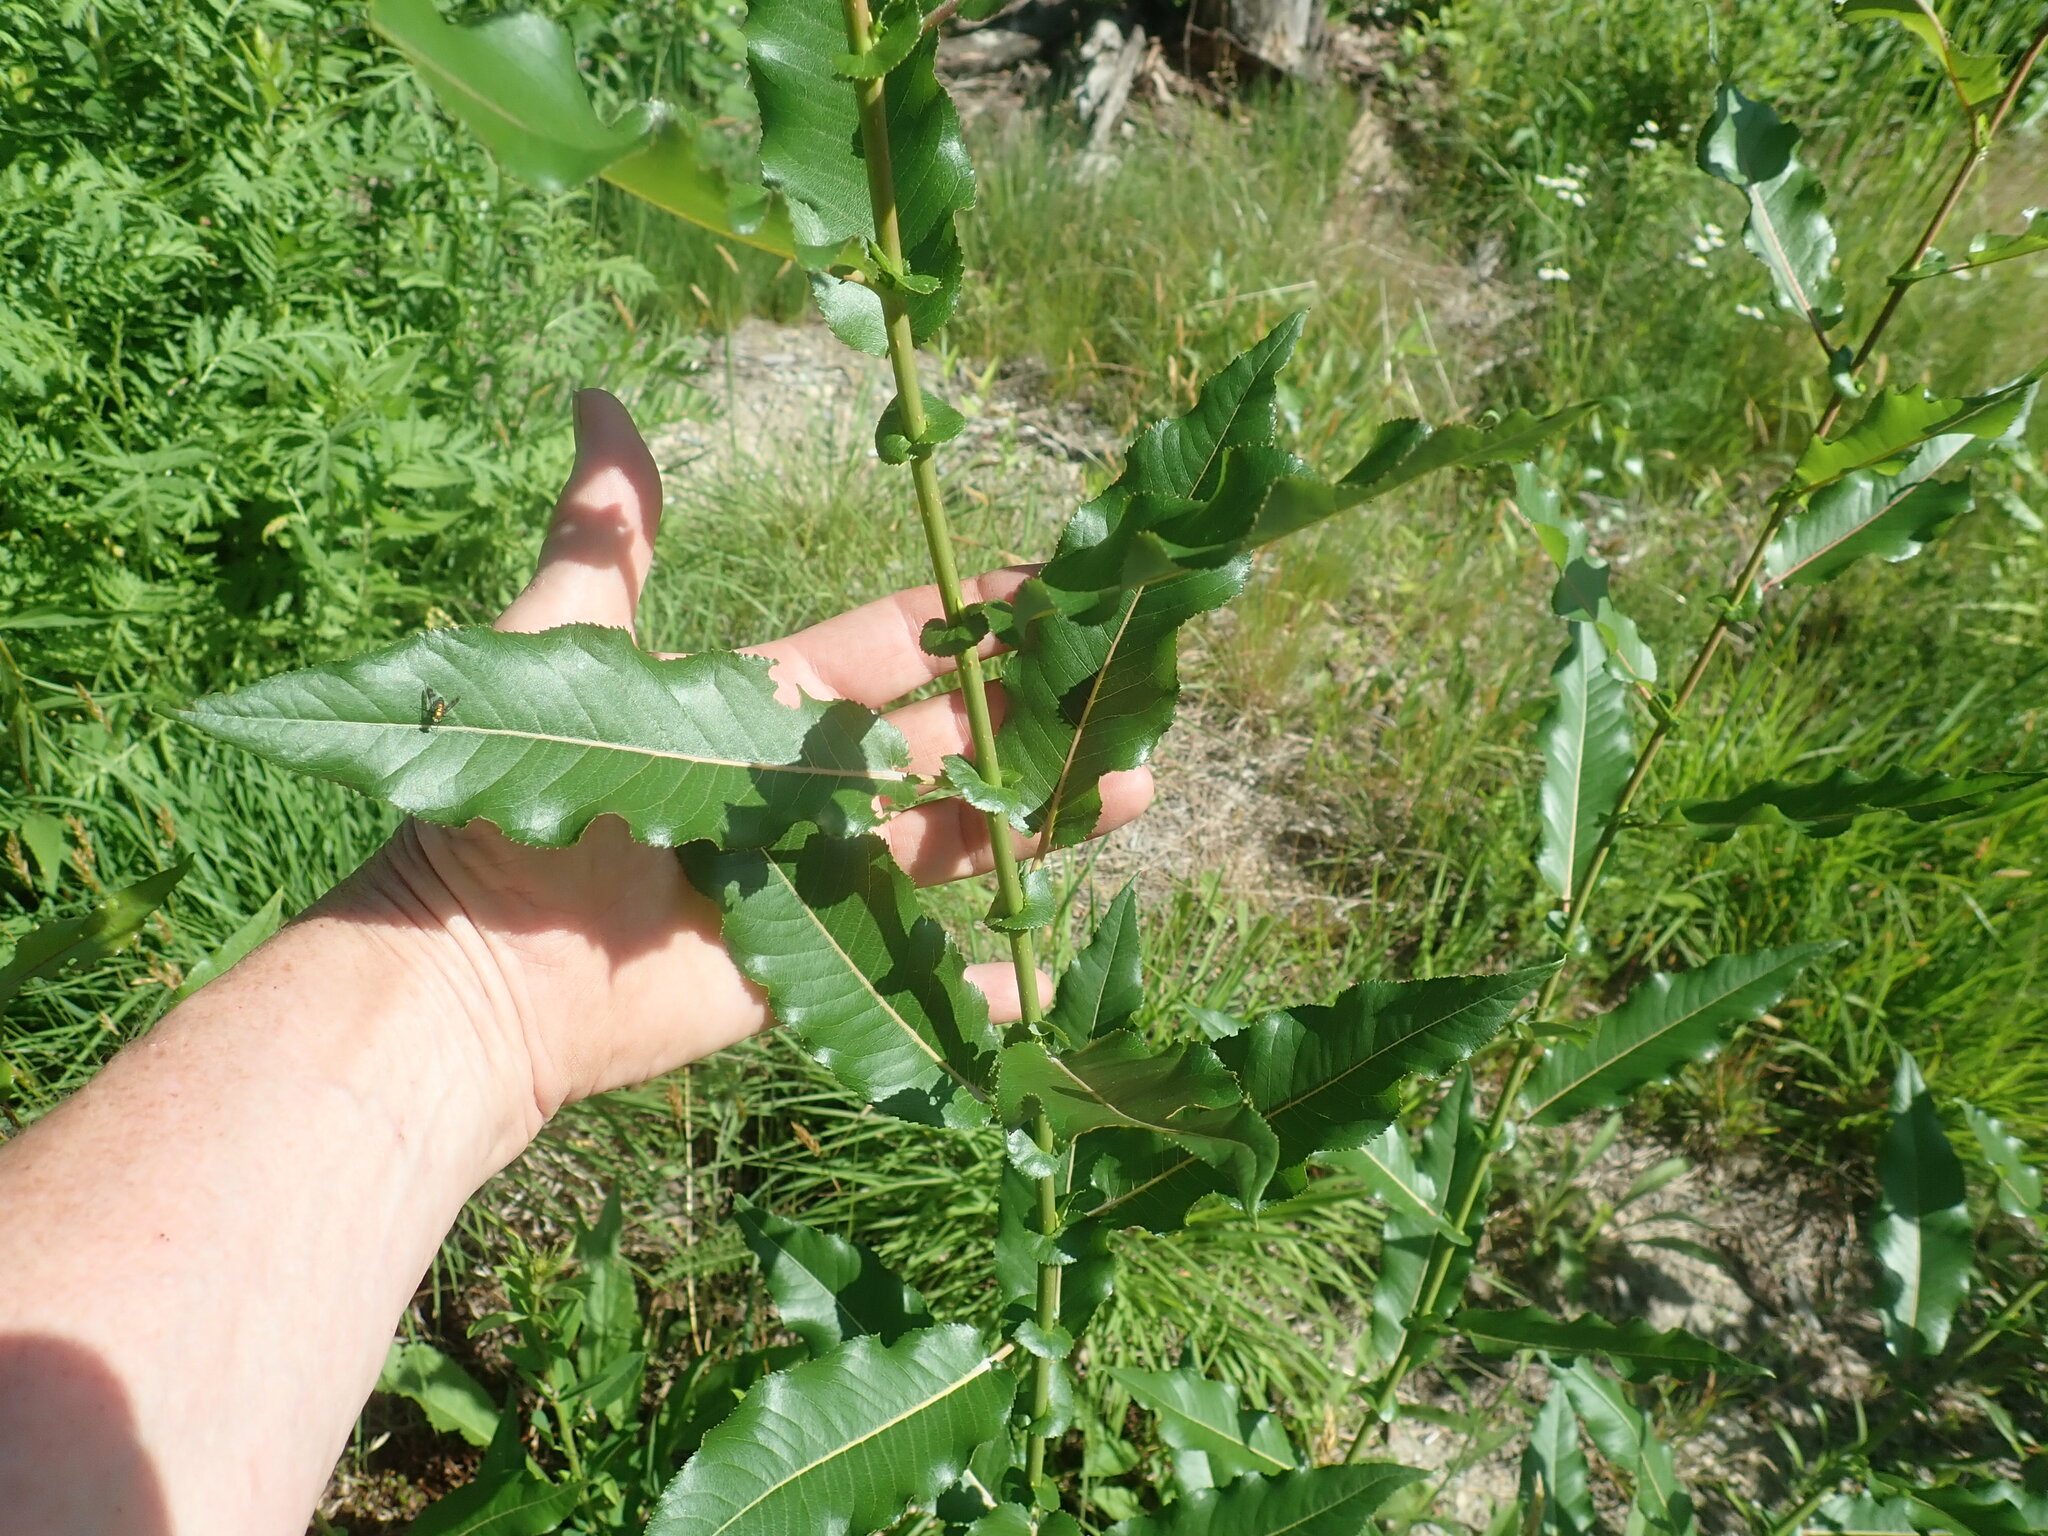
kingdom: Plantae
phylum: Tracheophyta
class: Magnoliopsida
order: Malpighiales
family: Salicaceae
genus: Salix
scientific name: Salix eriocephala
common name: Heart-leaved willow
